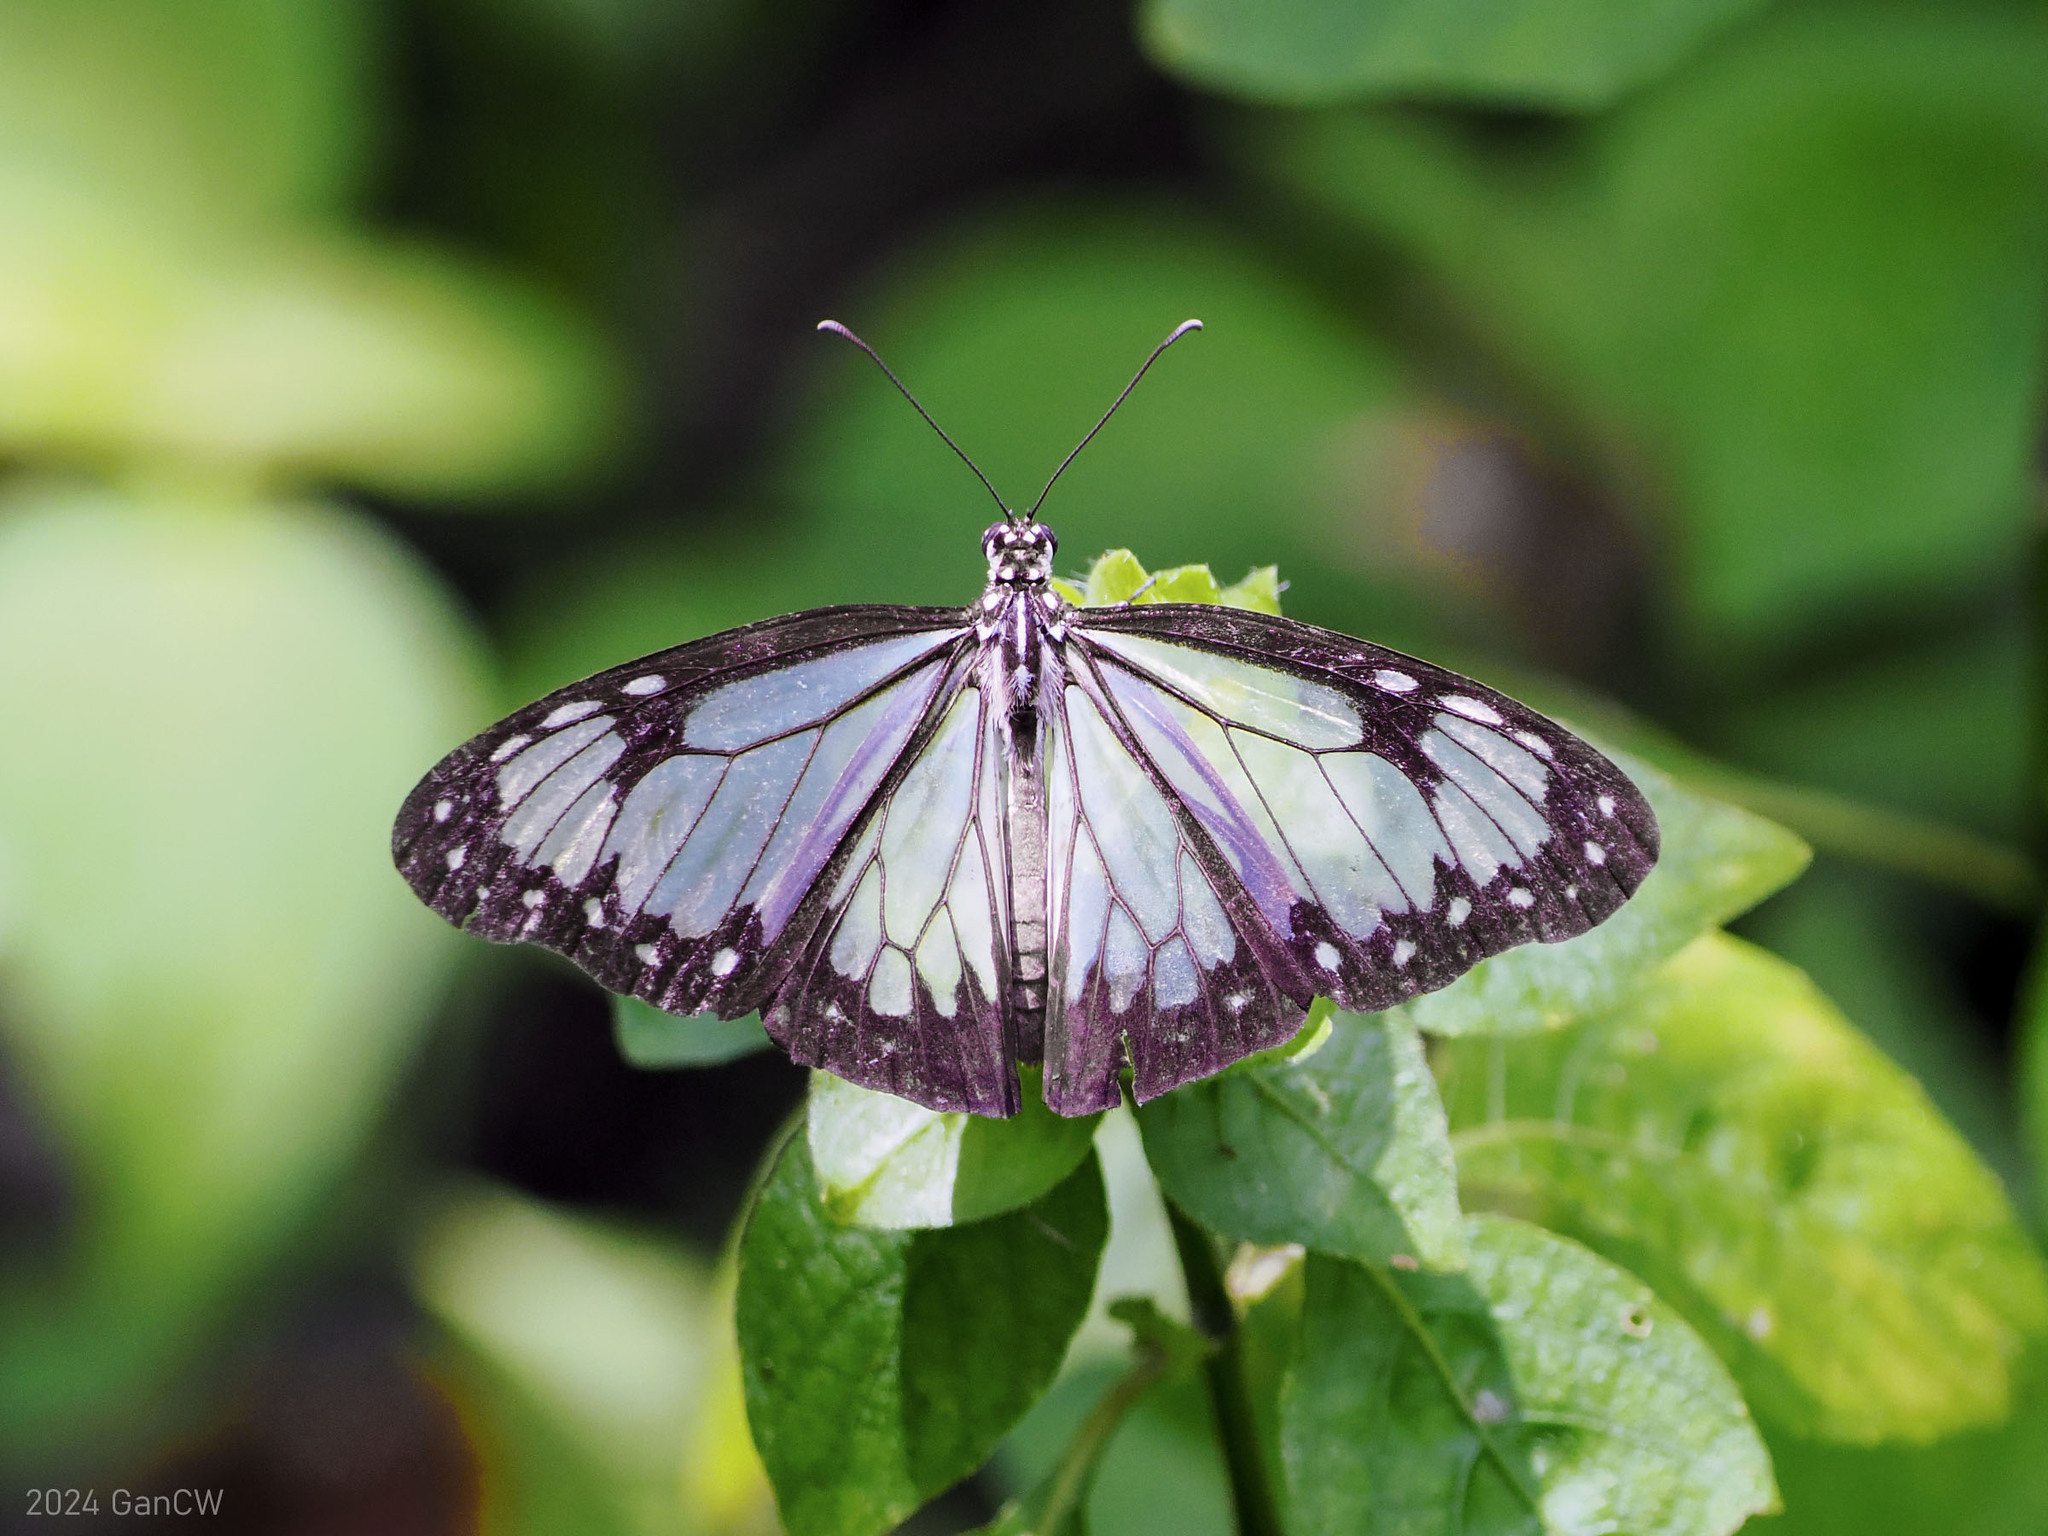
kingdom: Animalia
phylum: Arthropoda
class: Insecta
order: Lepidoptera
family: Nymphalidae
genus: Parantica
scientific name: Parantica vitrina
